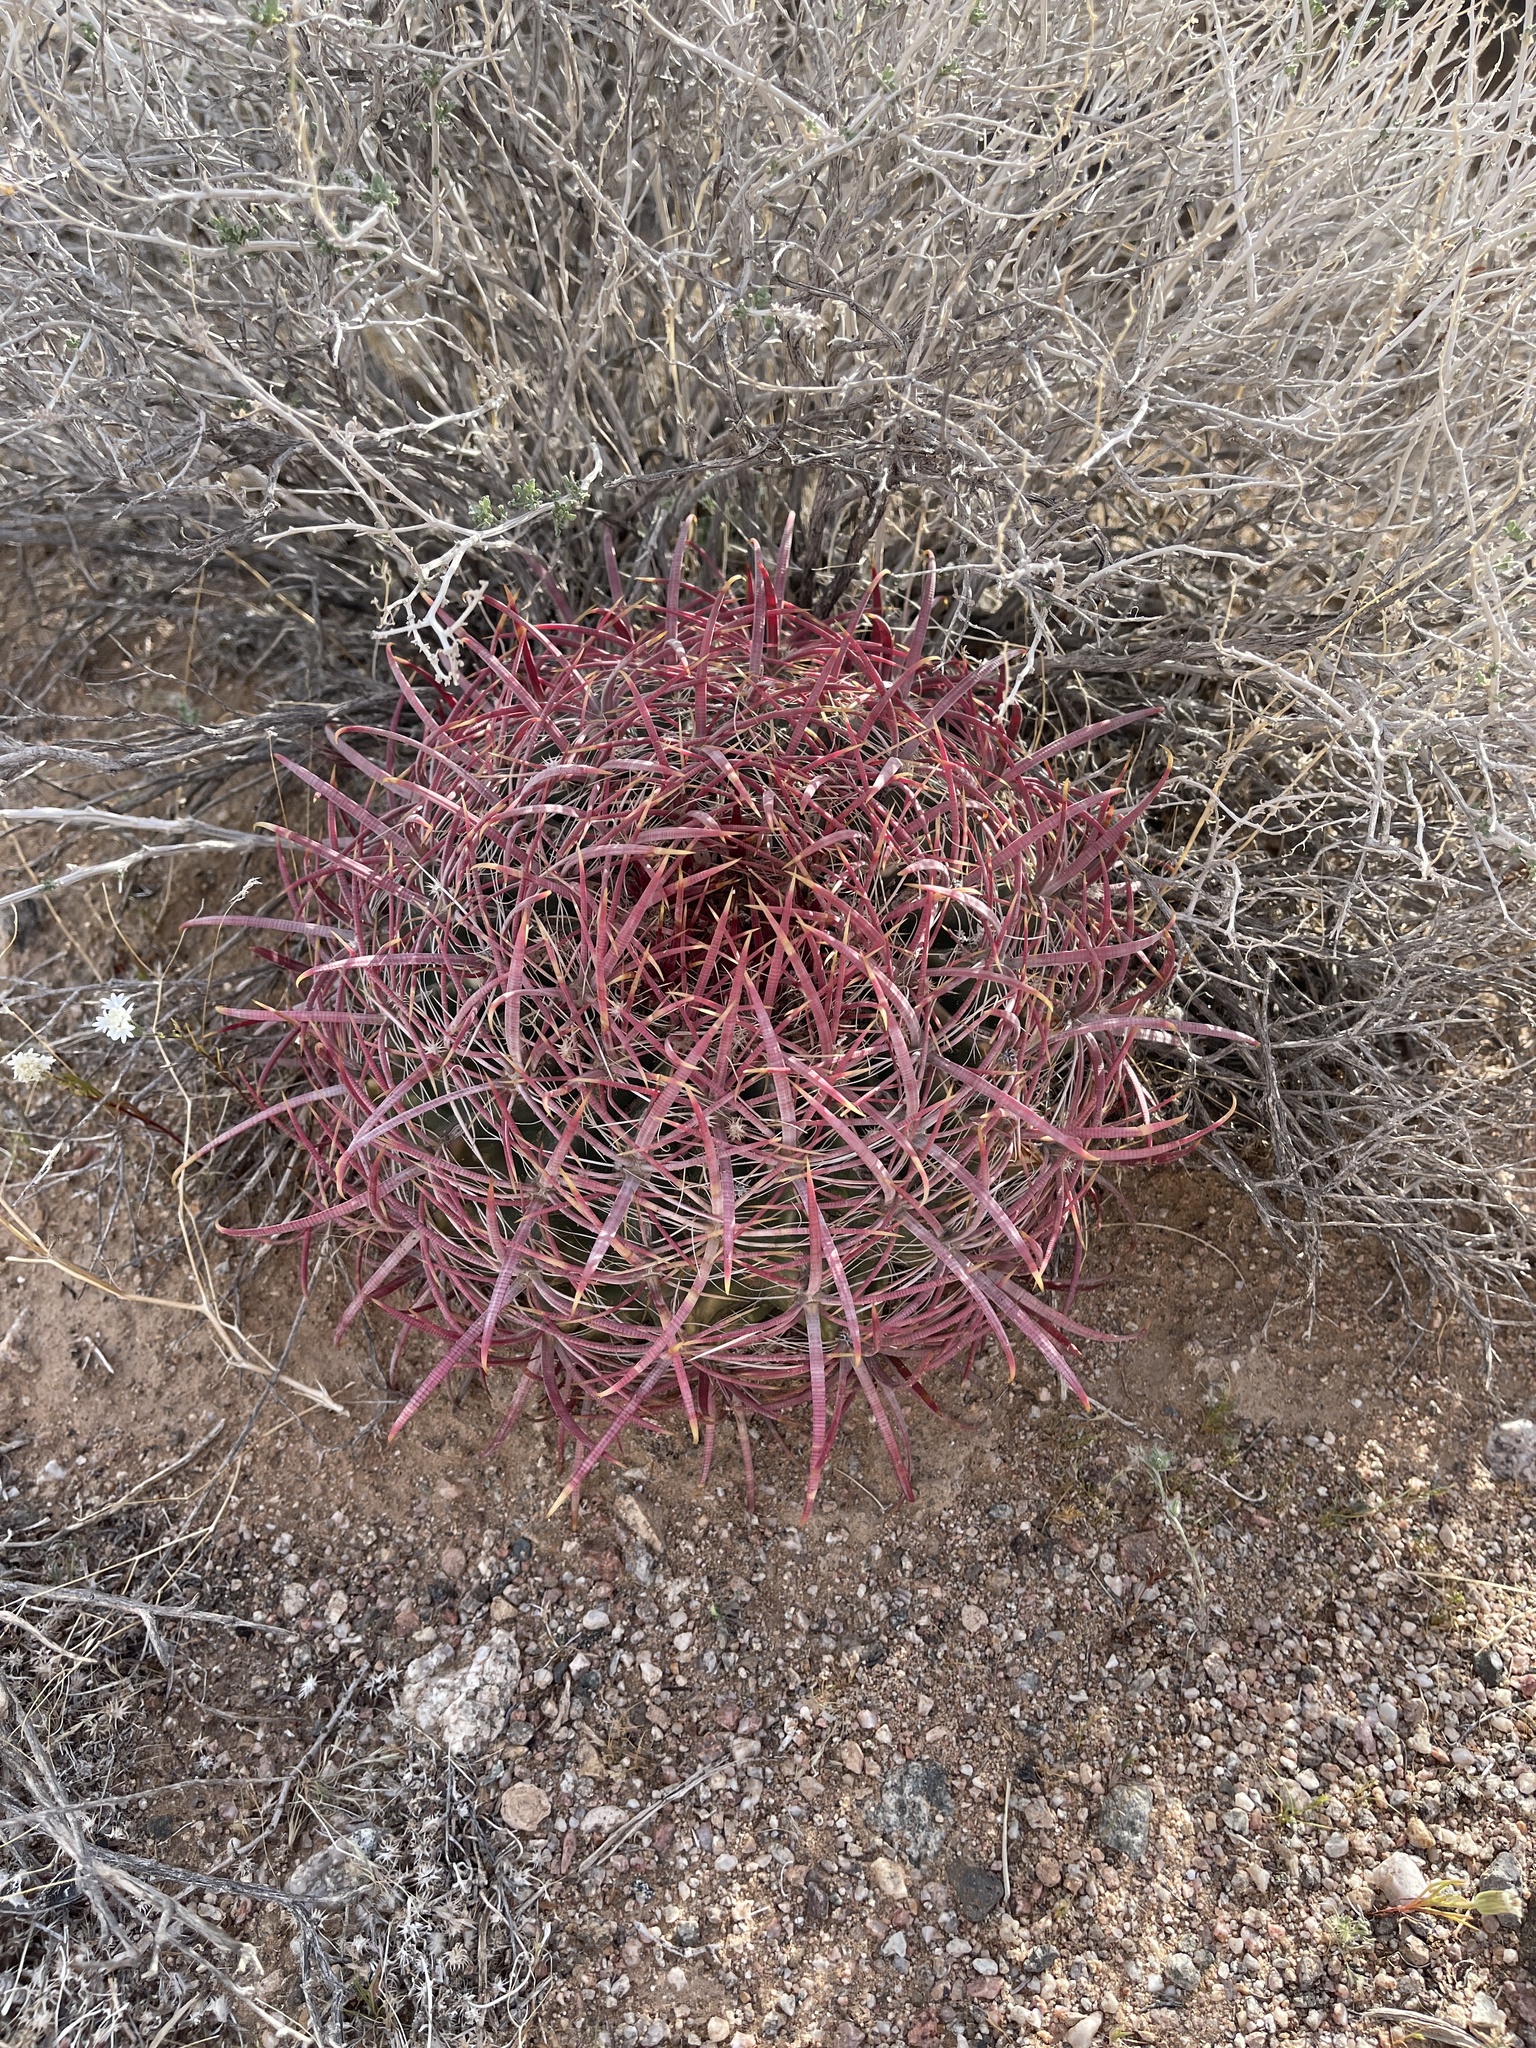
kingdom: Plantae
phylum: Tracheophyta
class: Magnoliopsida
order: Caryophyllales
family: Cactaceae
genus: Ferocactus
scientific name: Ferocactus cylindraceus
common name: California barrel cactus
